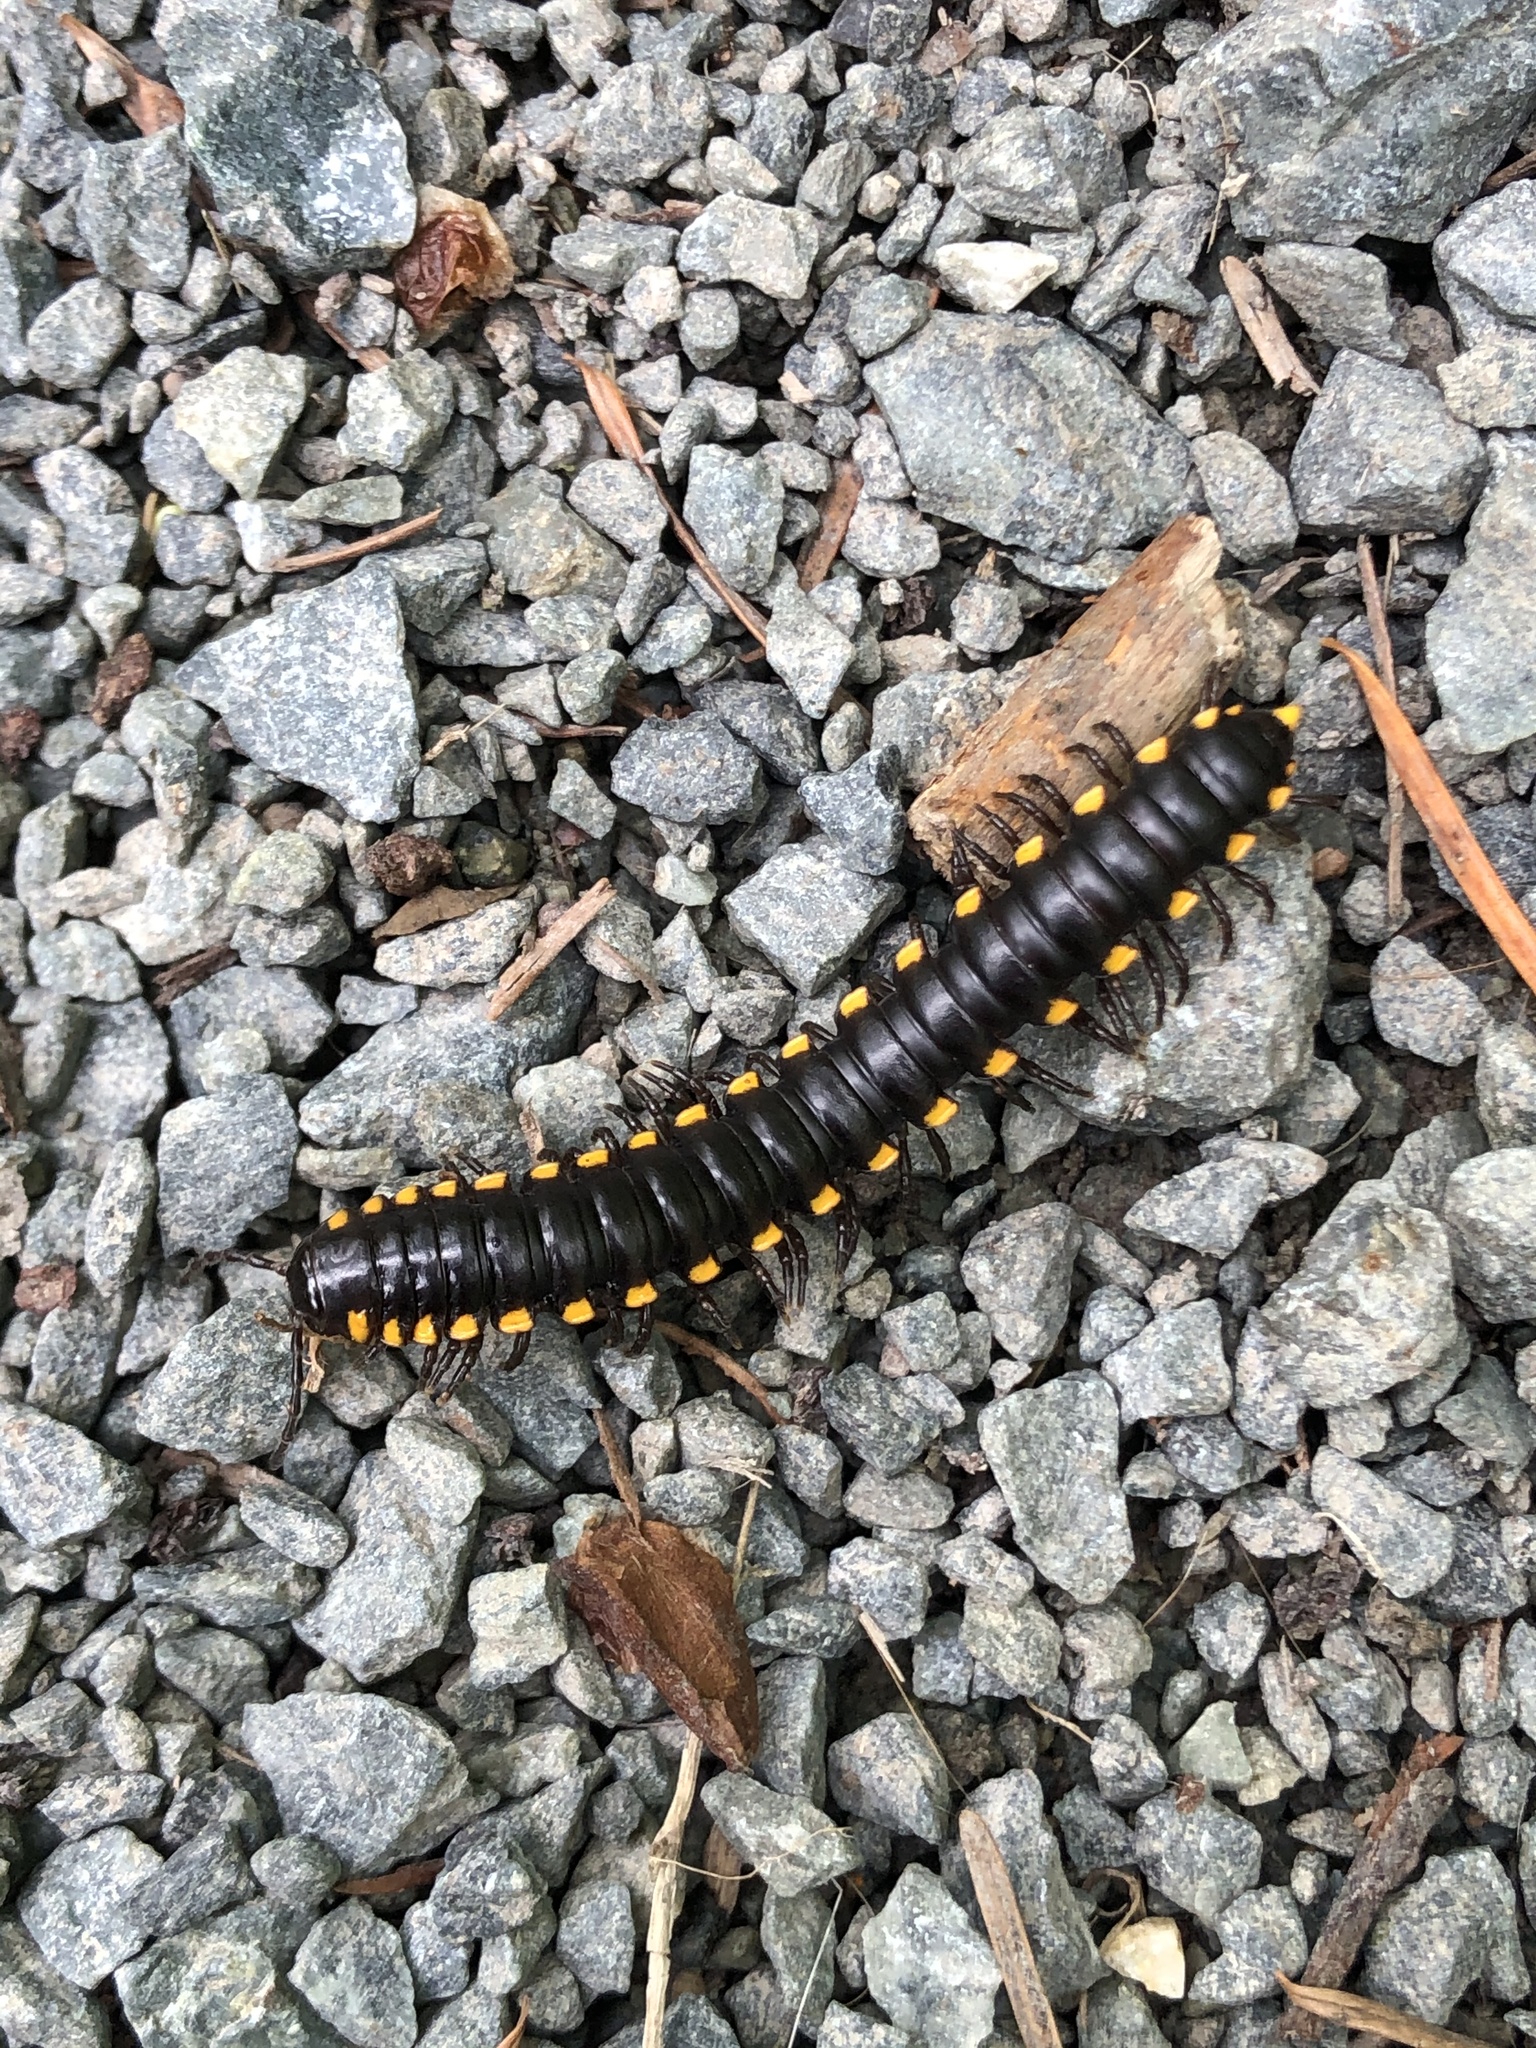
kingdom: Animalia
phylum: Arthropoda
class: Diplopoda
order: Polydesmida
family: Xystodesmidae
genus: Harpaphe
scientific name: Harpaphe haydeniana
